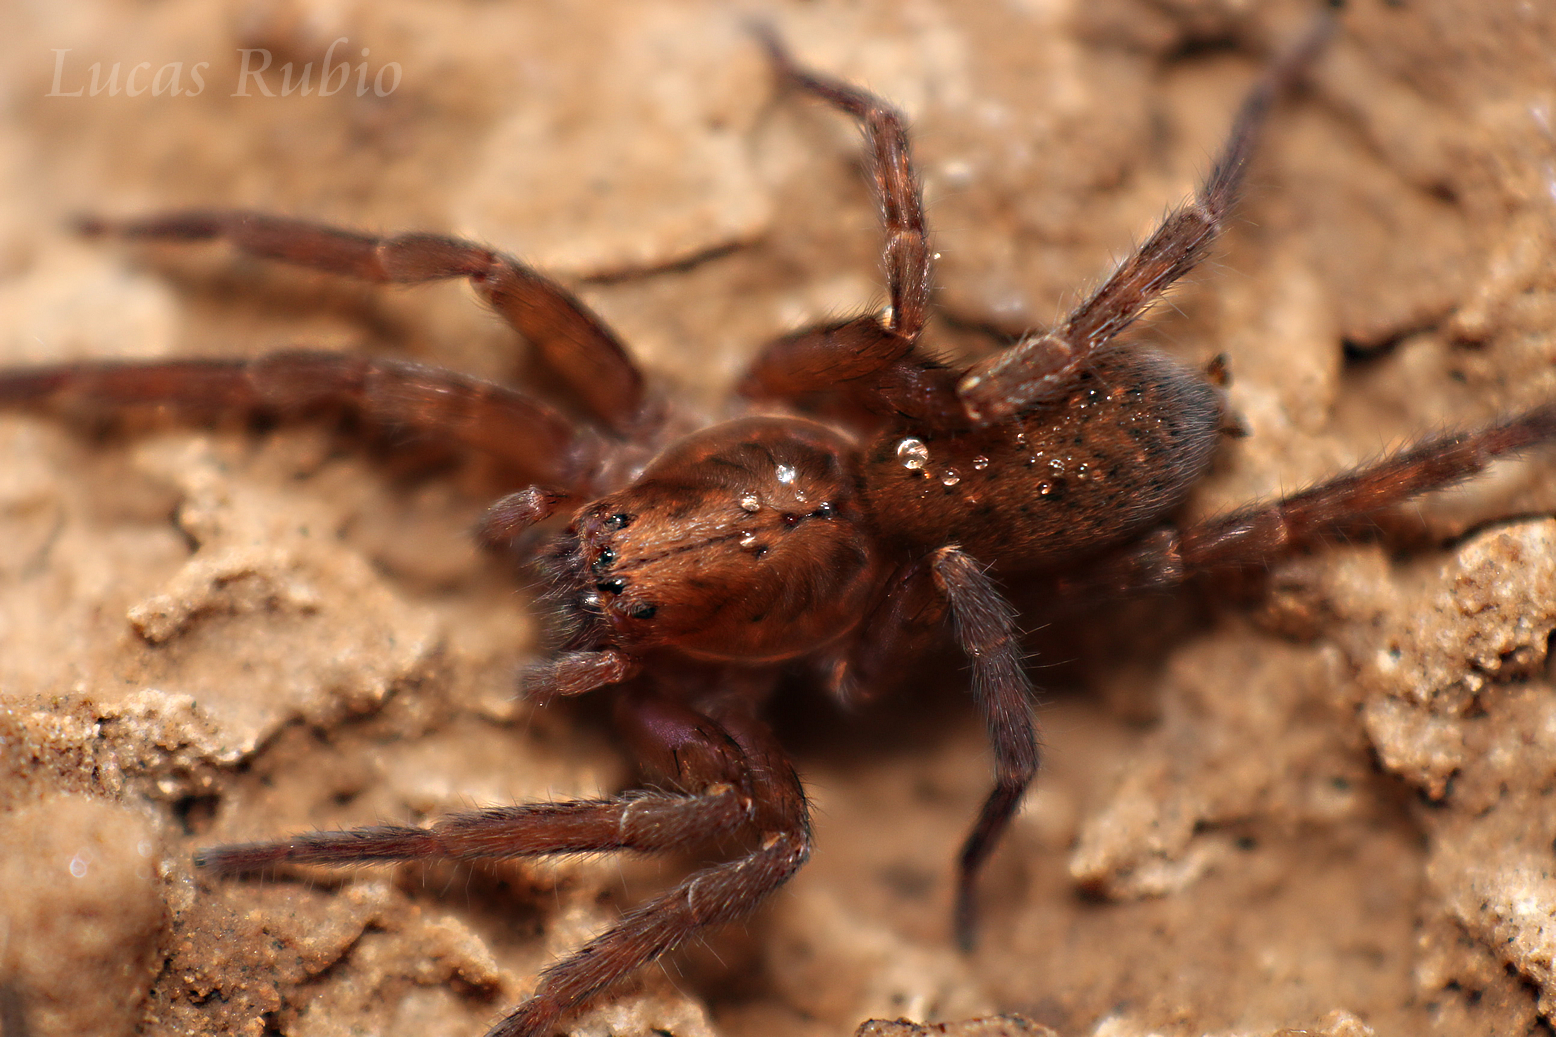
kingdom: Animalia
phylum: Arthropoda
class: Arachnida
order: Araneae
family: Ctenidae
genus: Asthenoctenus
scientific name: Asthenoctenus borellii
